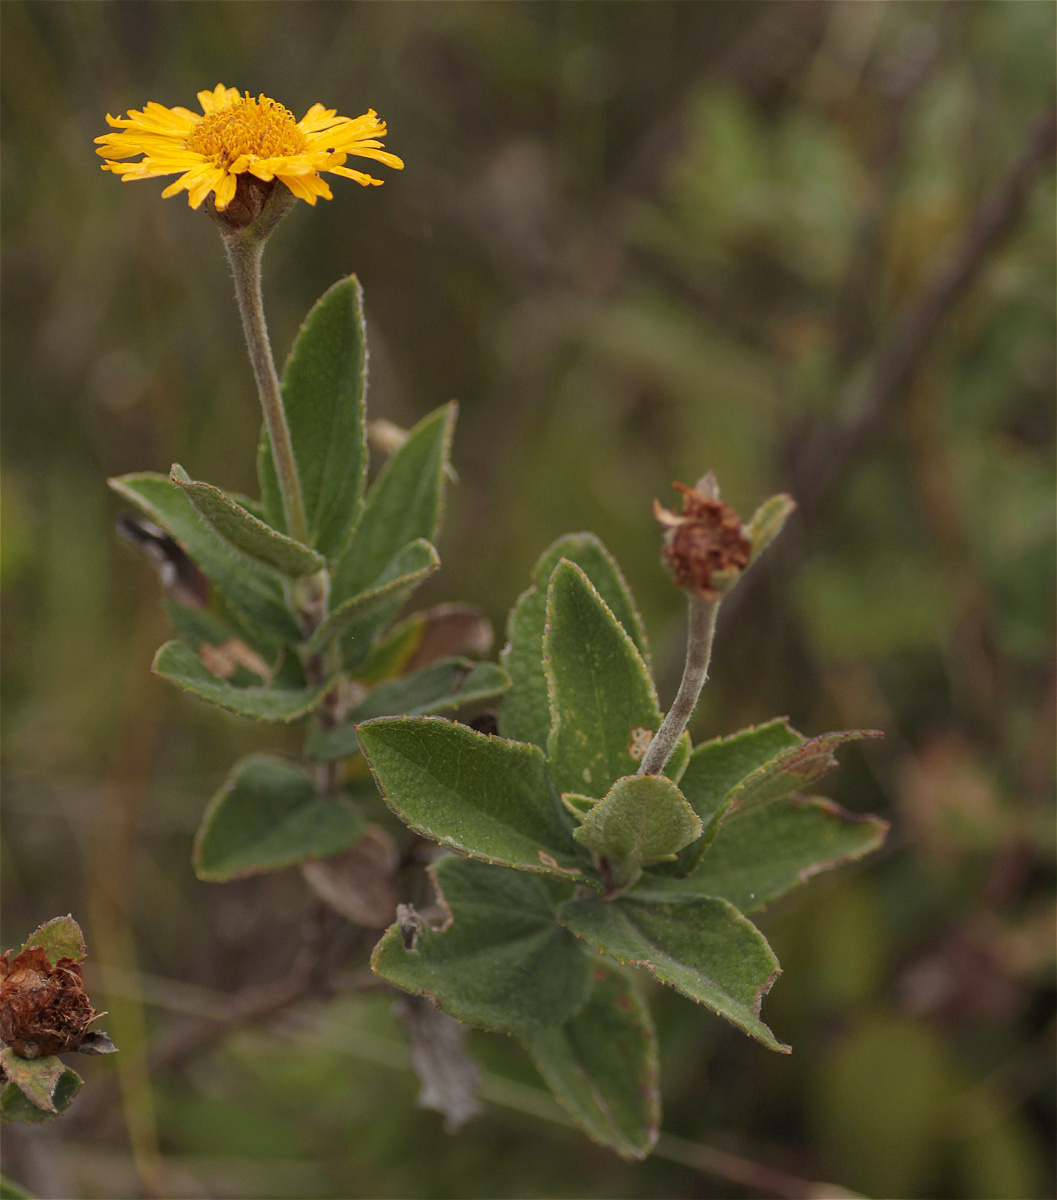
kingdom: Plantae
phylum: Tracheophyta
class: Magnoliopsida
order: Asterales
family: Asteraceae
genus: Calea
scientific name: Calea peruviana
